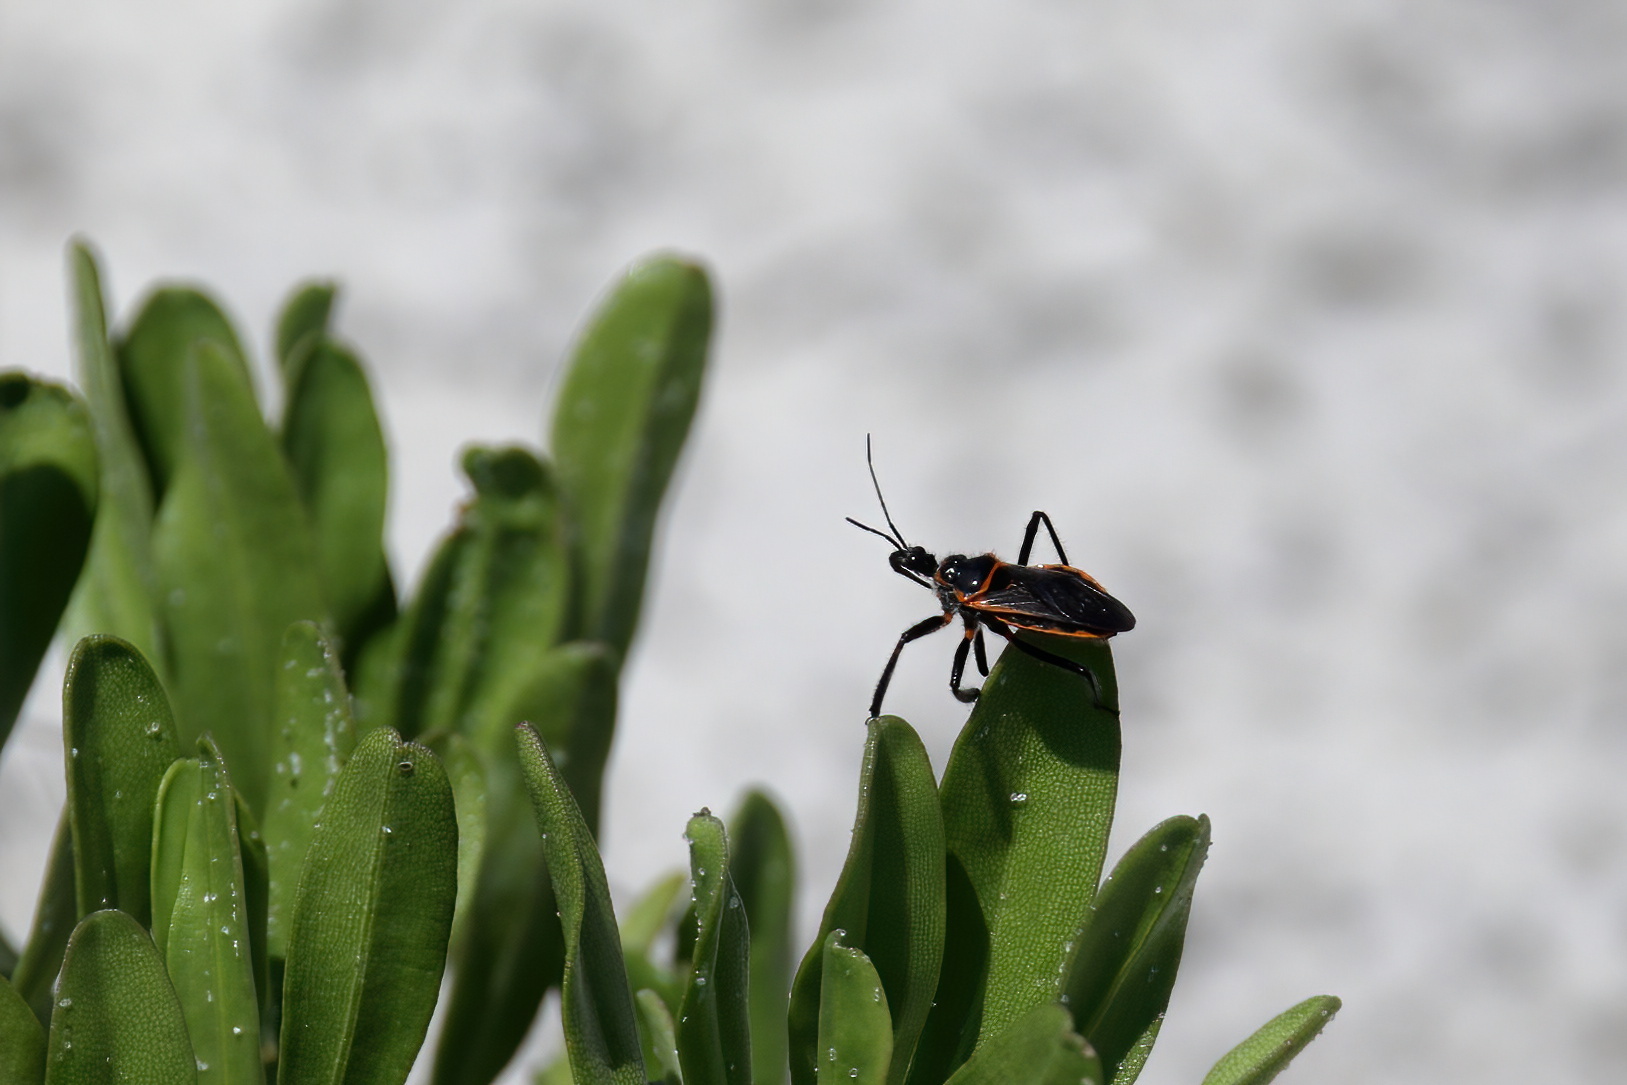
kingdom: Animalia
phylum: Arthropoda
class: Insecta
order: Hemiptera
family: Reduviidae
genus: Apiomerus
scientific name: Apiomerus crassipes
